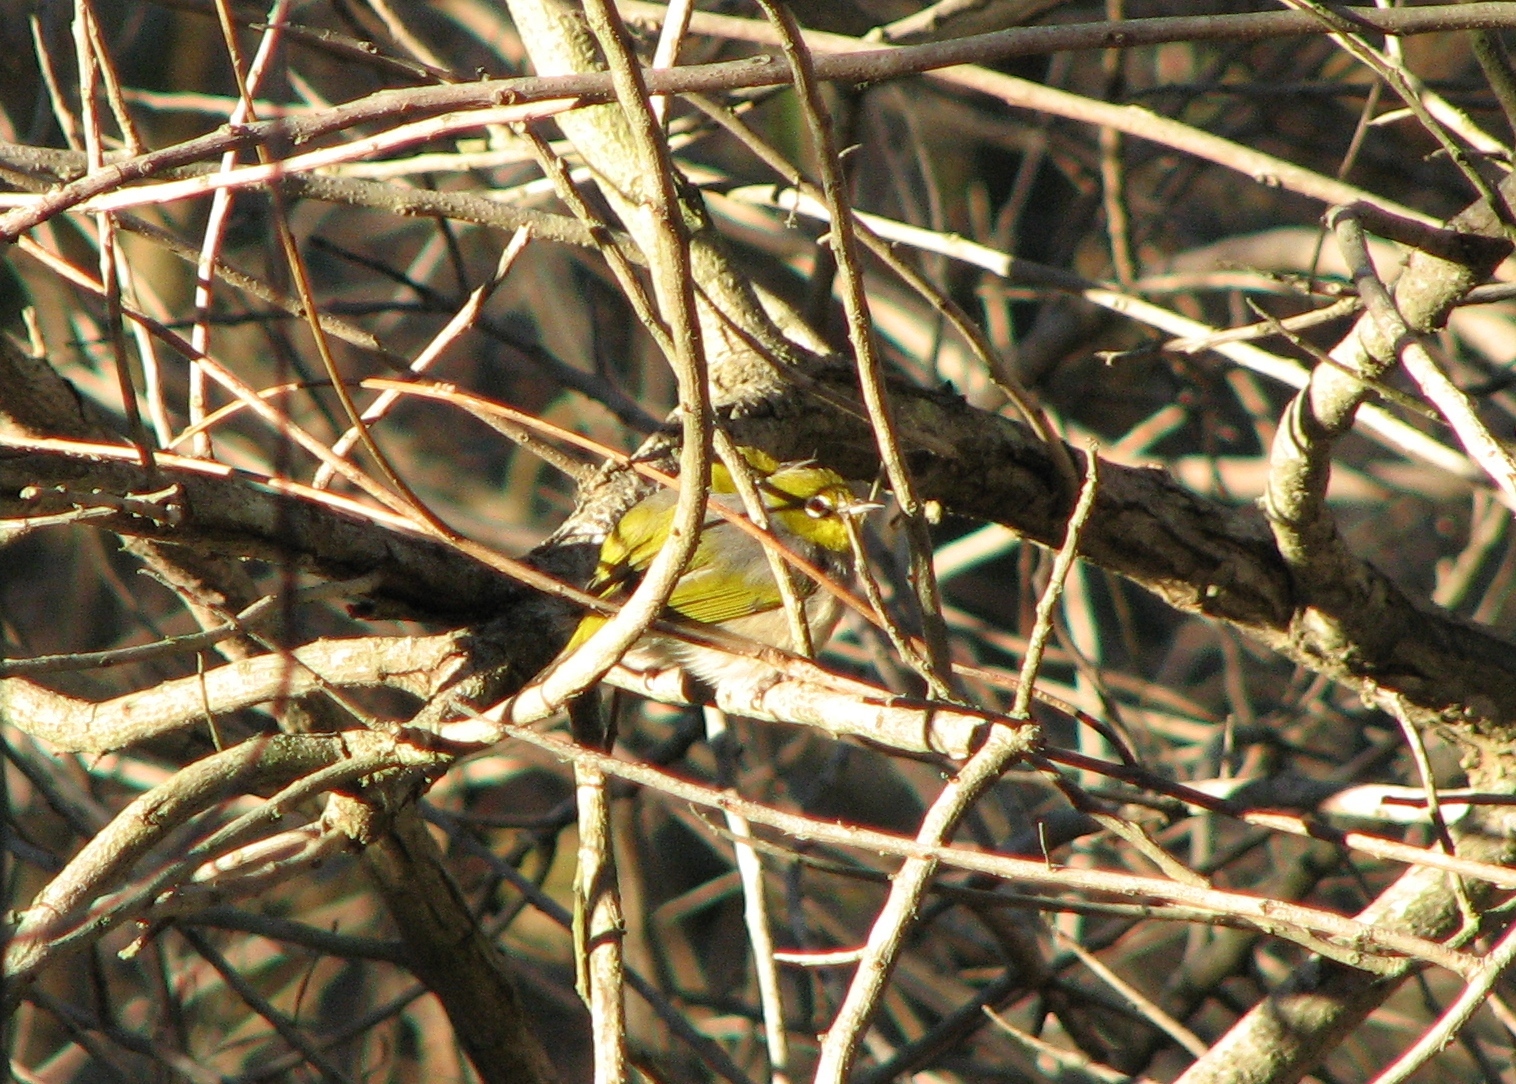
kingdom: Animalia
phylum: Chordata
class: Aves
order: Passeriformes
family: Zosteropidae
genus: Zosterops
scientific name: Zosterops lateralis
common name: Silvereye
